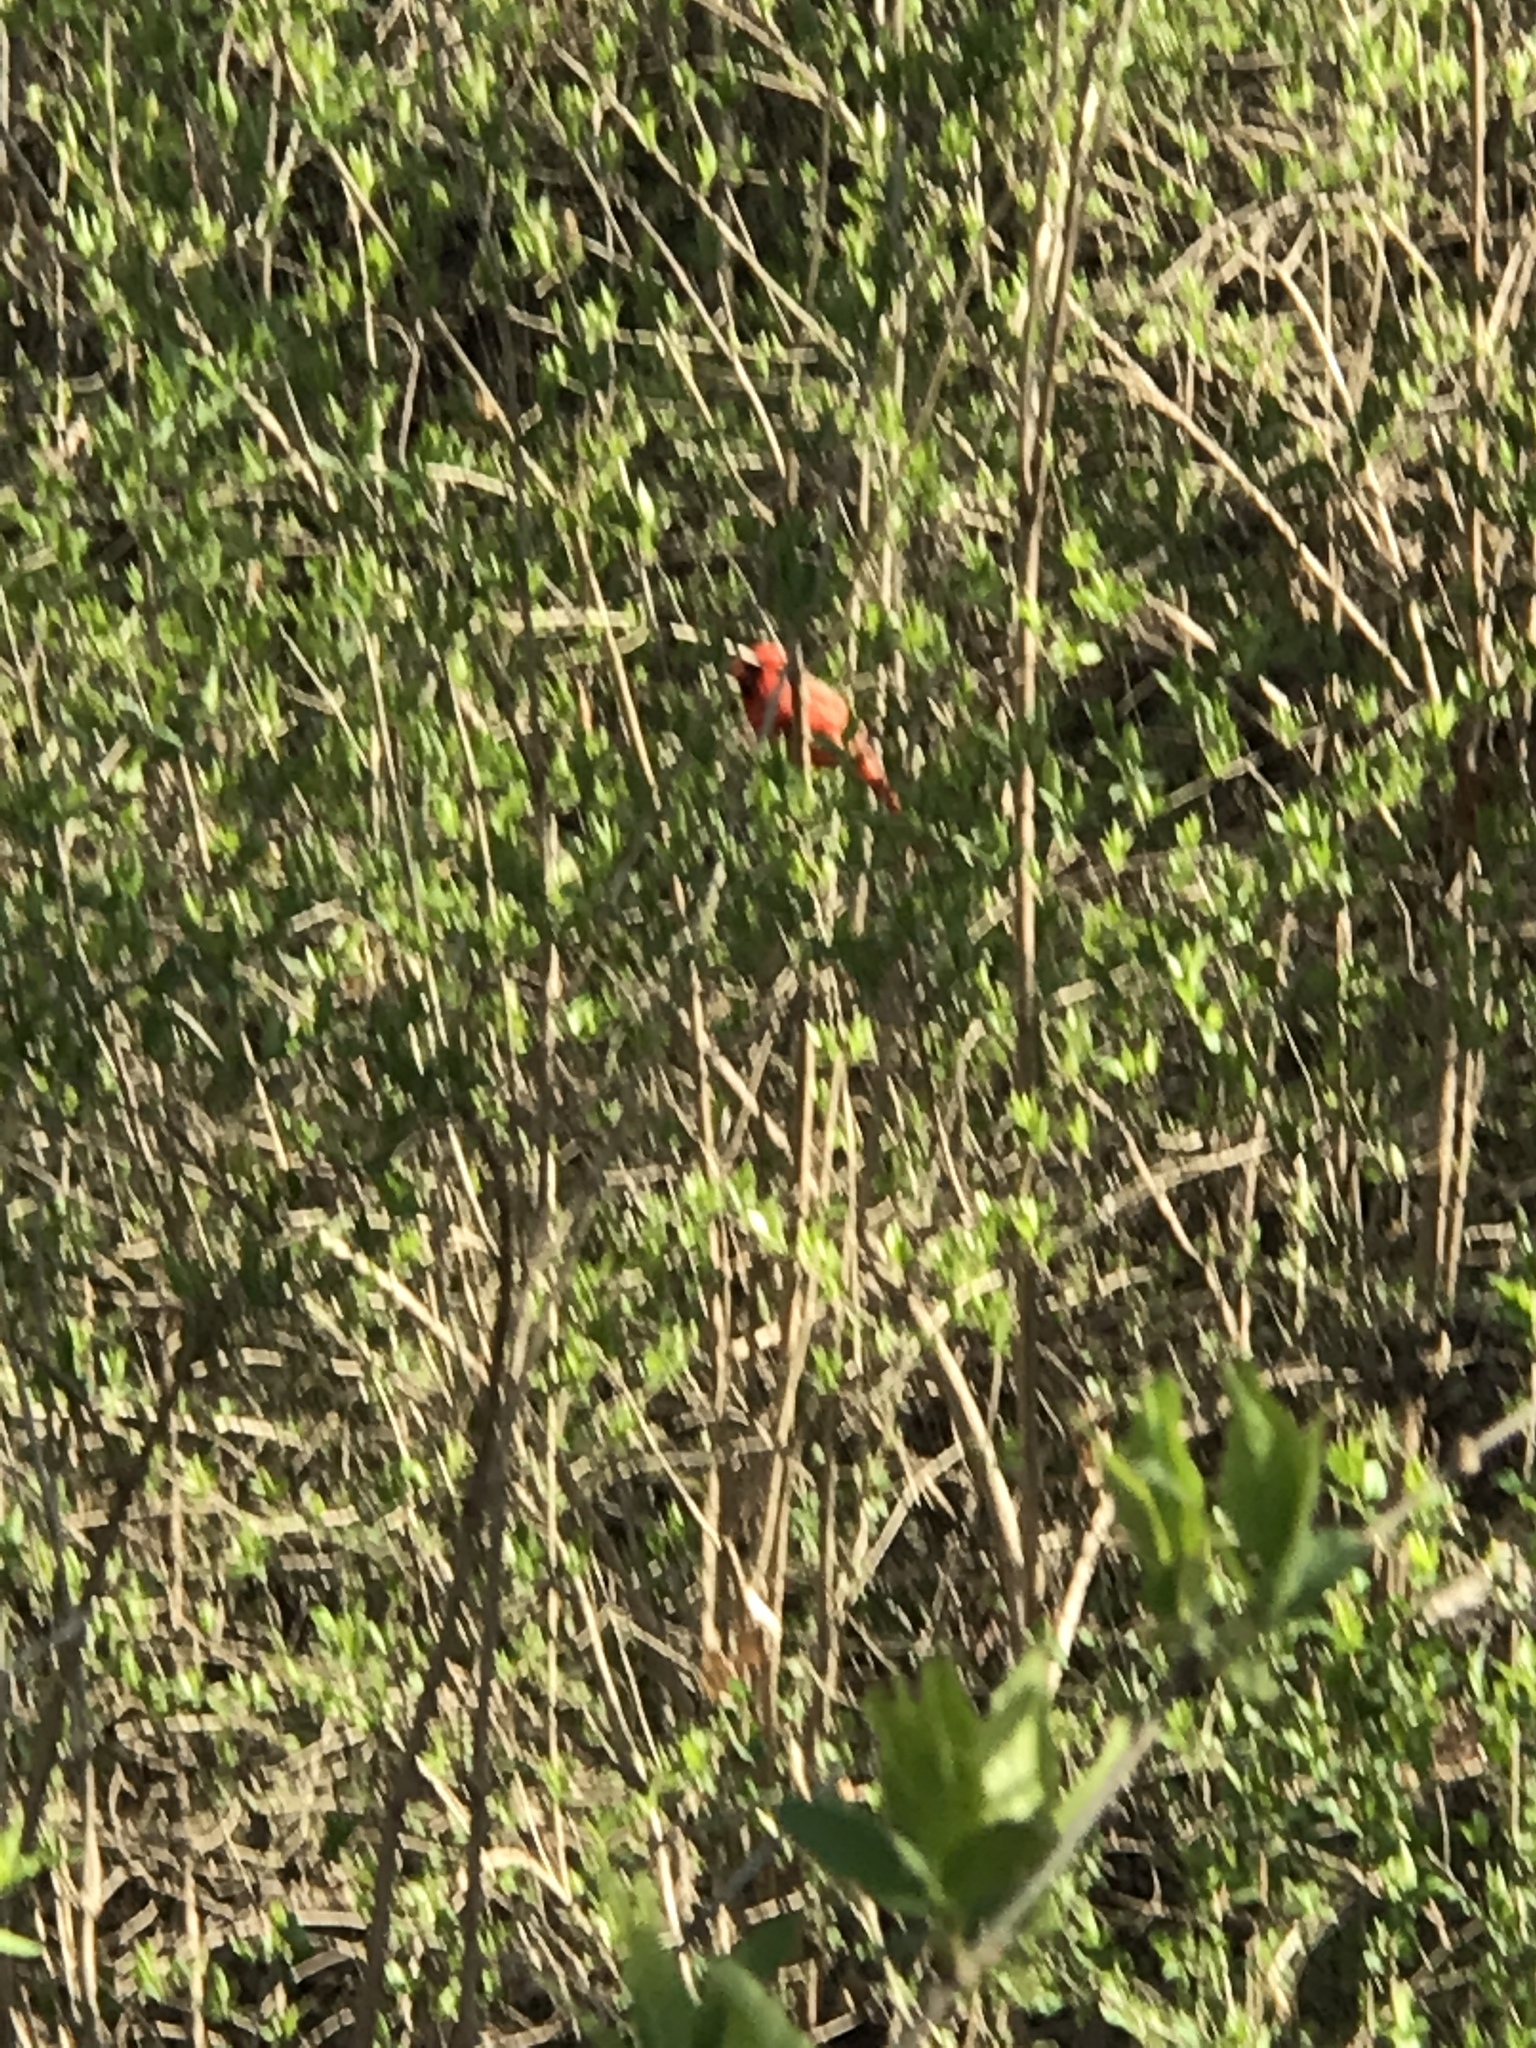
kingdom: Animalia
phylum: Chordata
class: Aves
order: Passeriformes
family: Cardinalidae
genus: Cardinalis
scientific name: Cardinalis cardinalis
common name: Northern cardinal
